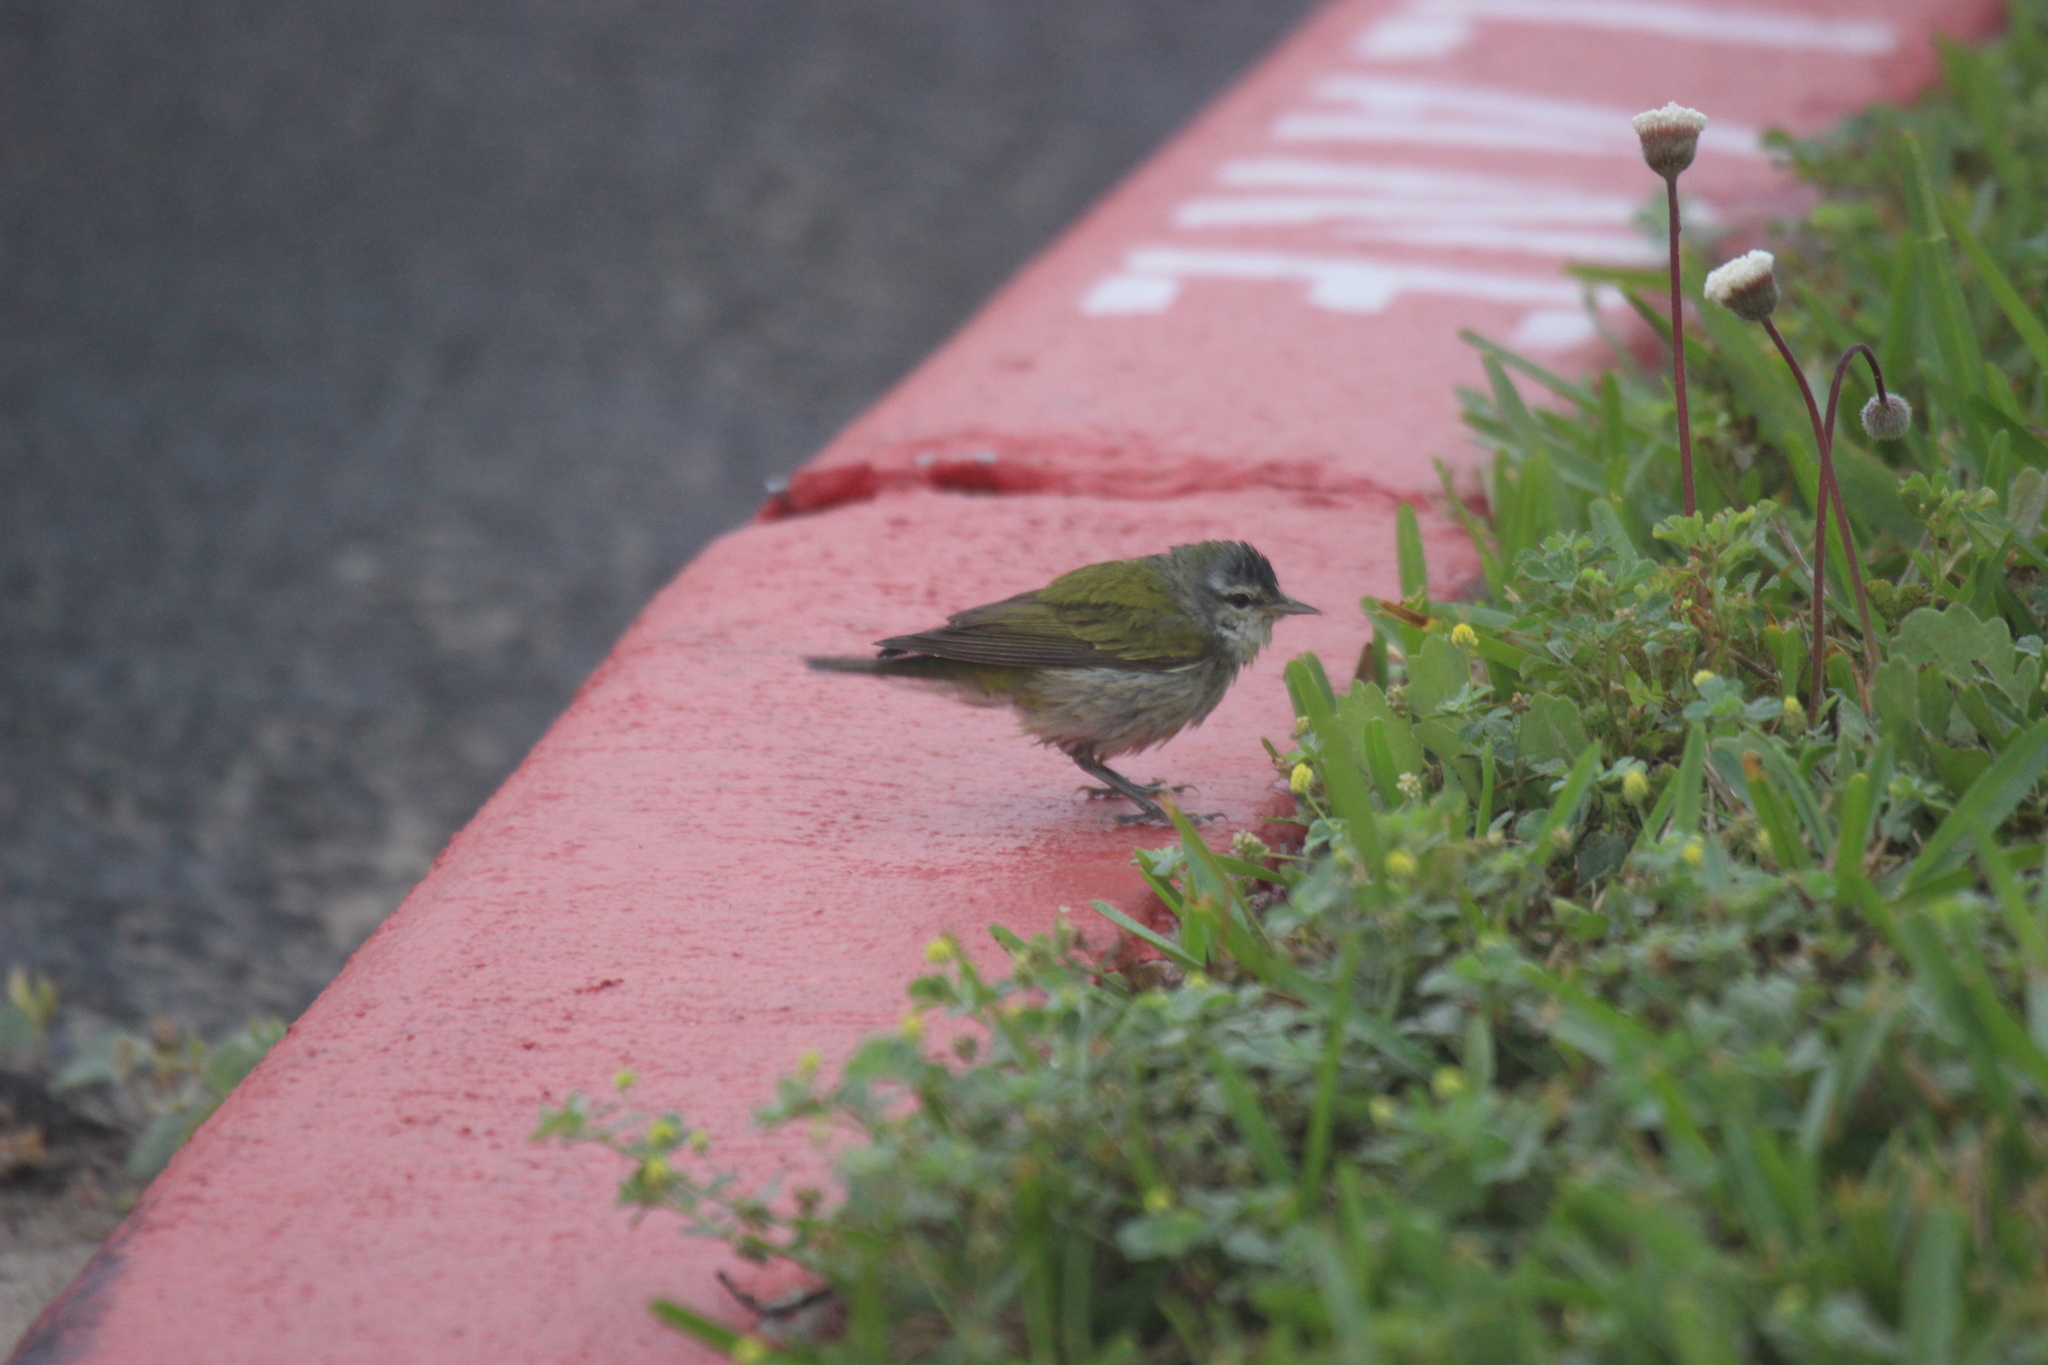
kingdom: Animalia
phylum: Chordata
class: Aves
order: Passeriformes
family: Parulidae
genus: Leiothlypis
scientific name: Leiothlypis peregrina
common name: Tennessee warbler
